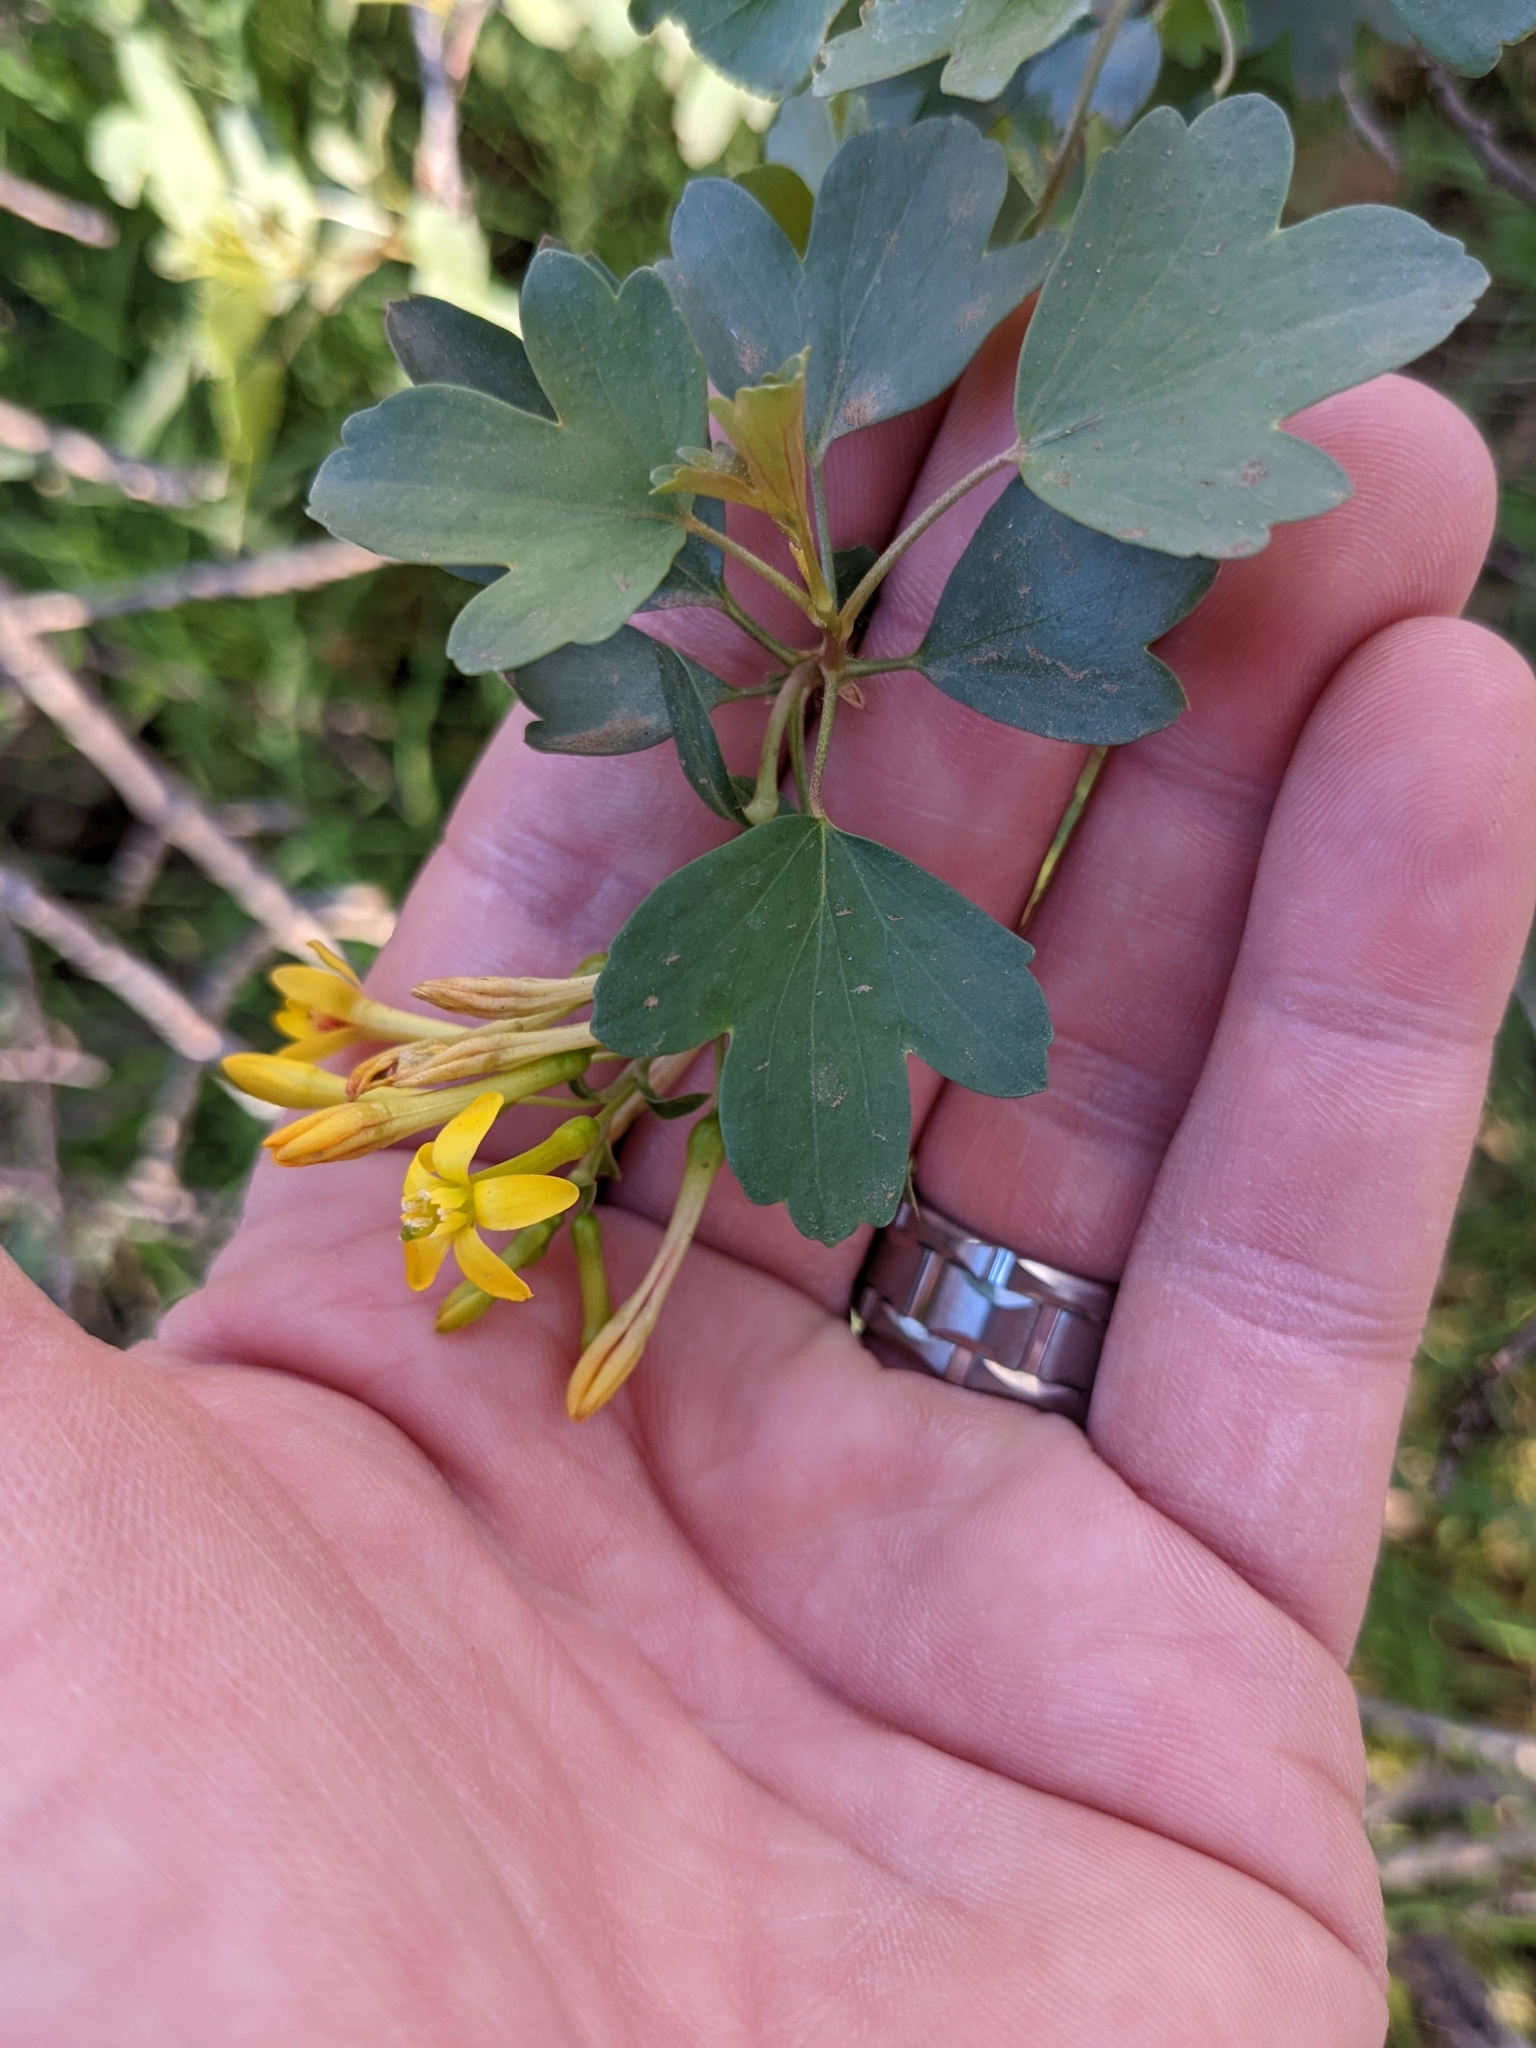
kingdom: Plantae
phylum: Tracheophyta
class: Magnoliopsida
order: Saxifragales
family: Grossulariaceae
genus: Ribes
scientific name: Ribes aureum
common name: Golden currant
